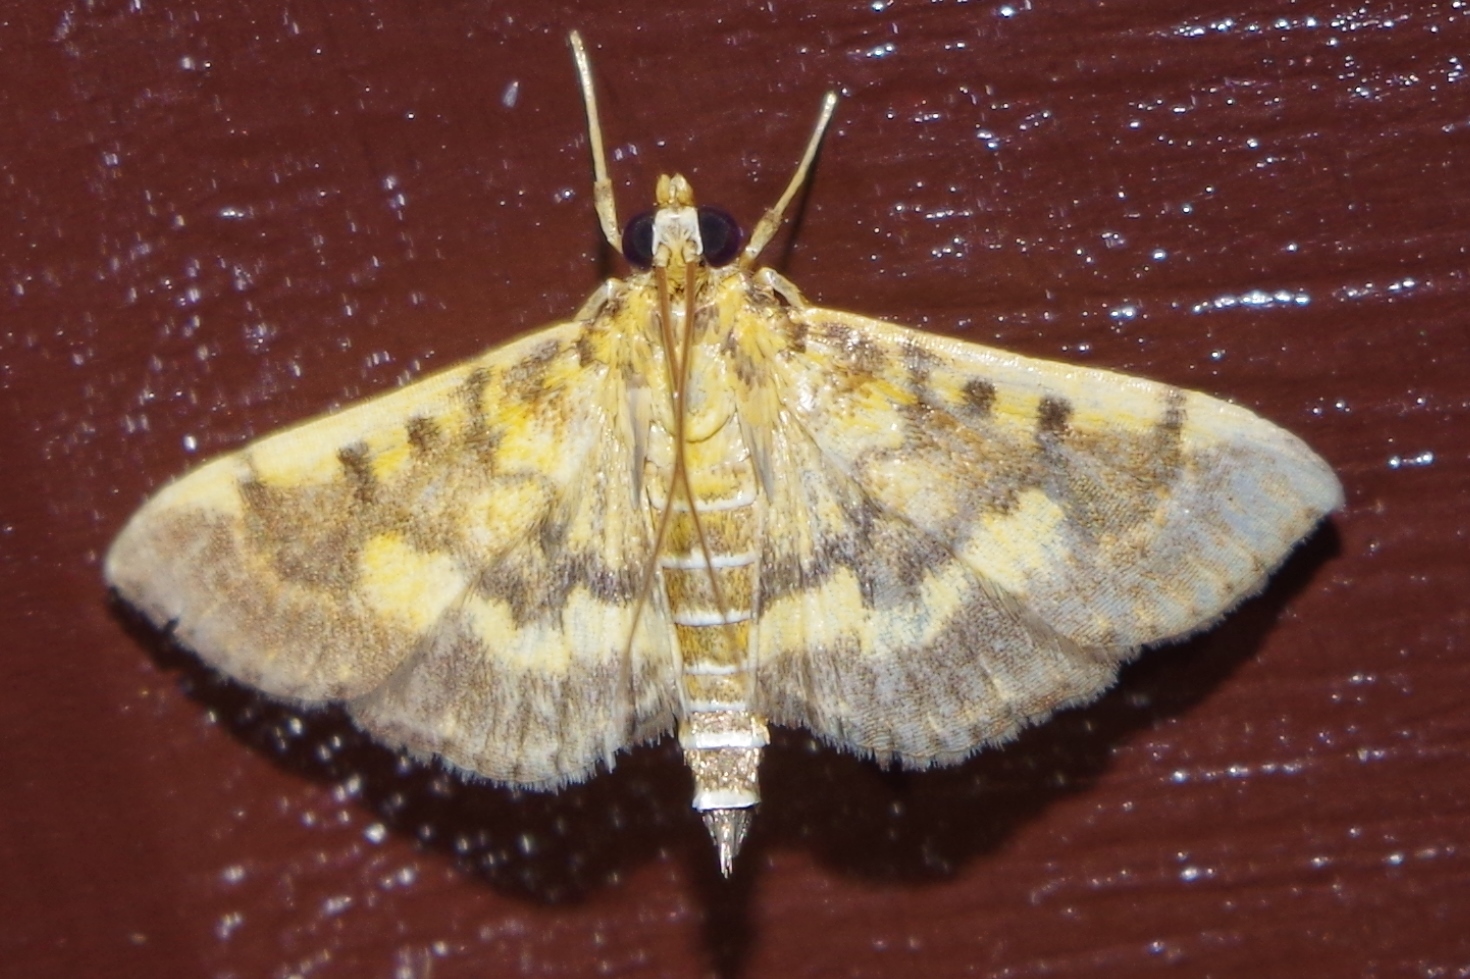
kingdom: Animalia
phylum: Arthropoda
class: Insecta
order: Lepidoptera
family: Crambidae
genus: Omiodes
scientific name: Omiodes diemenalis
